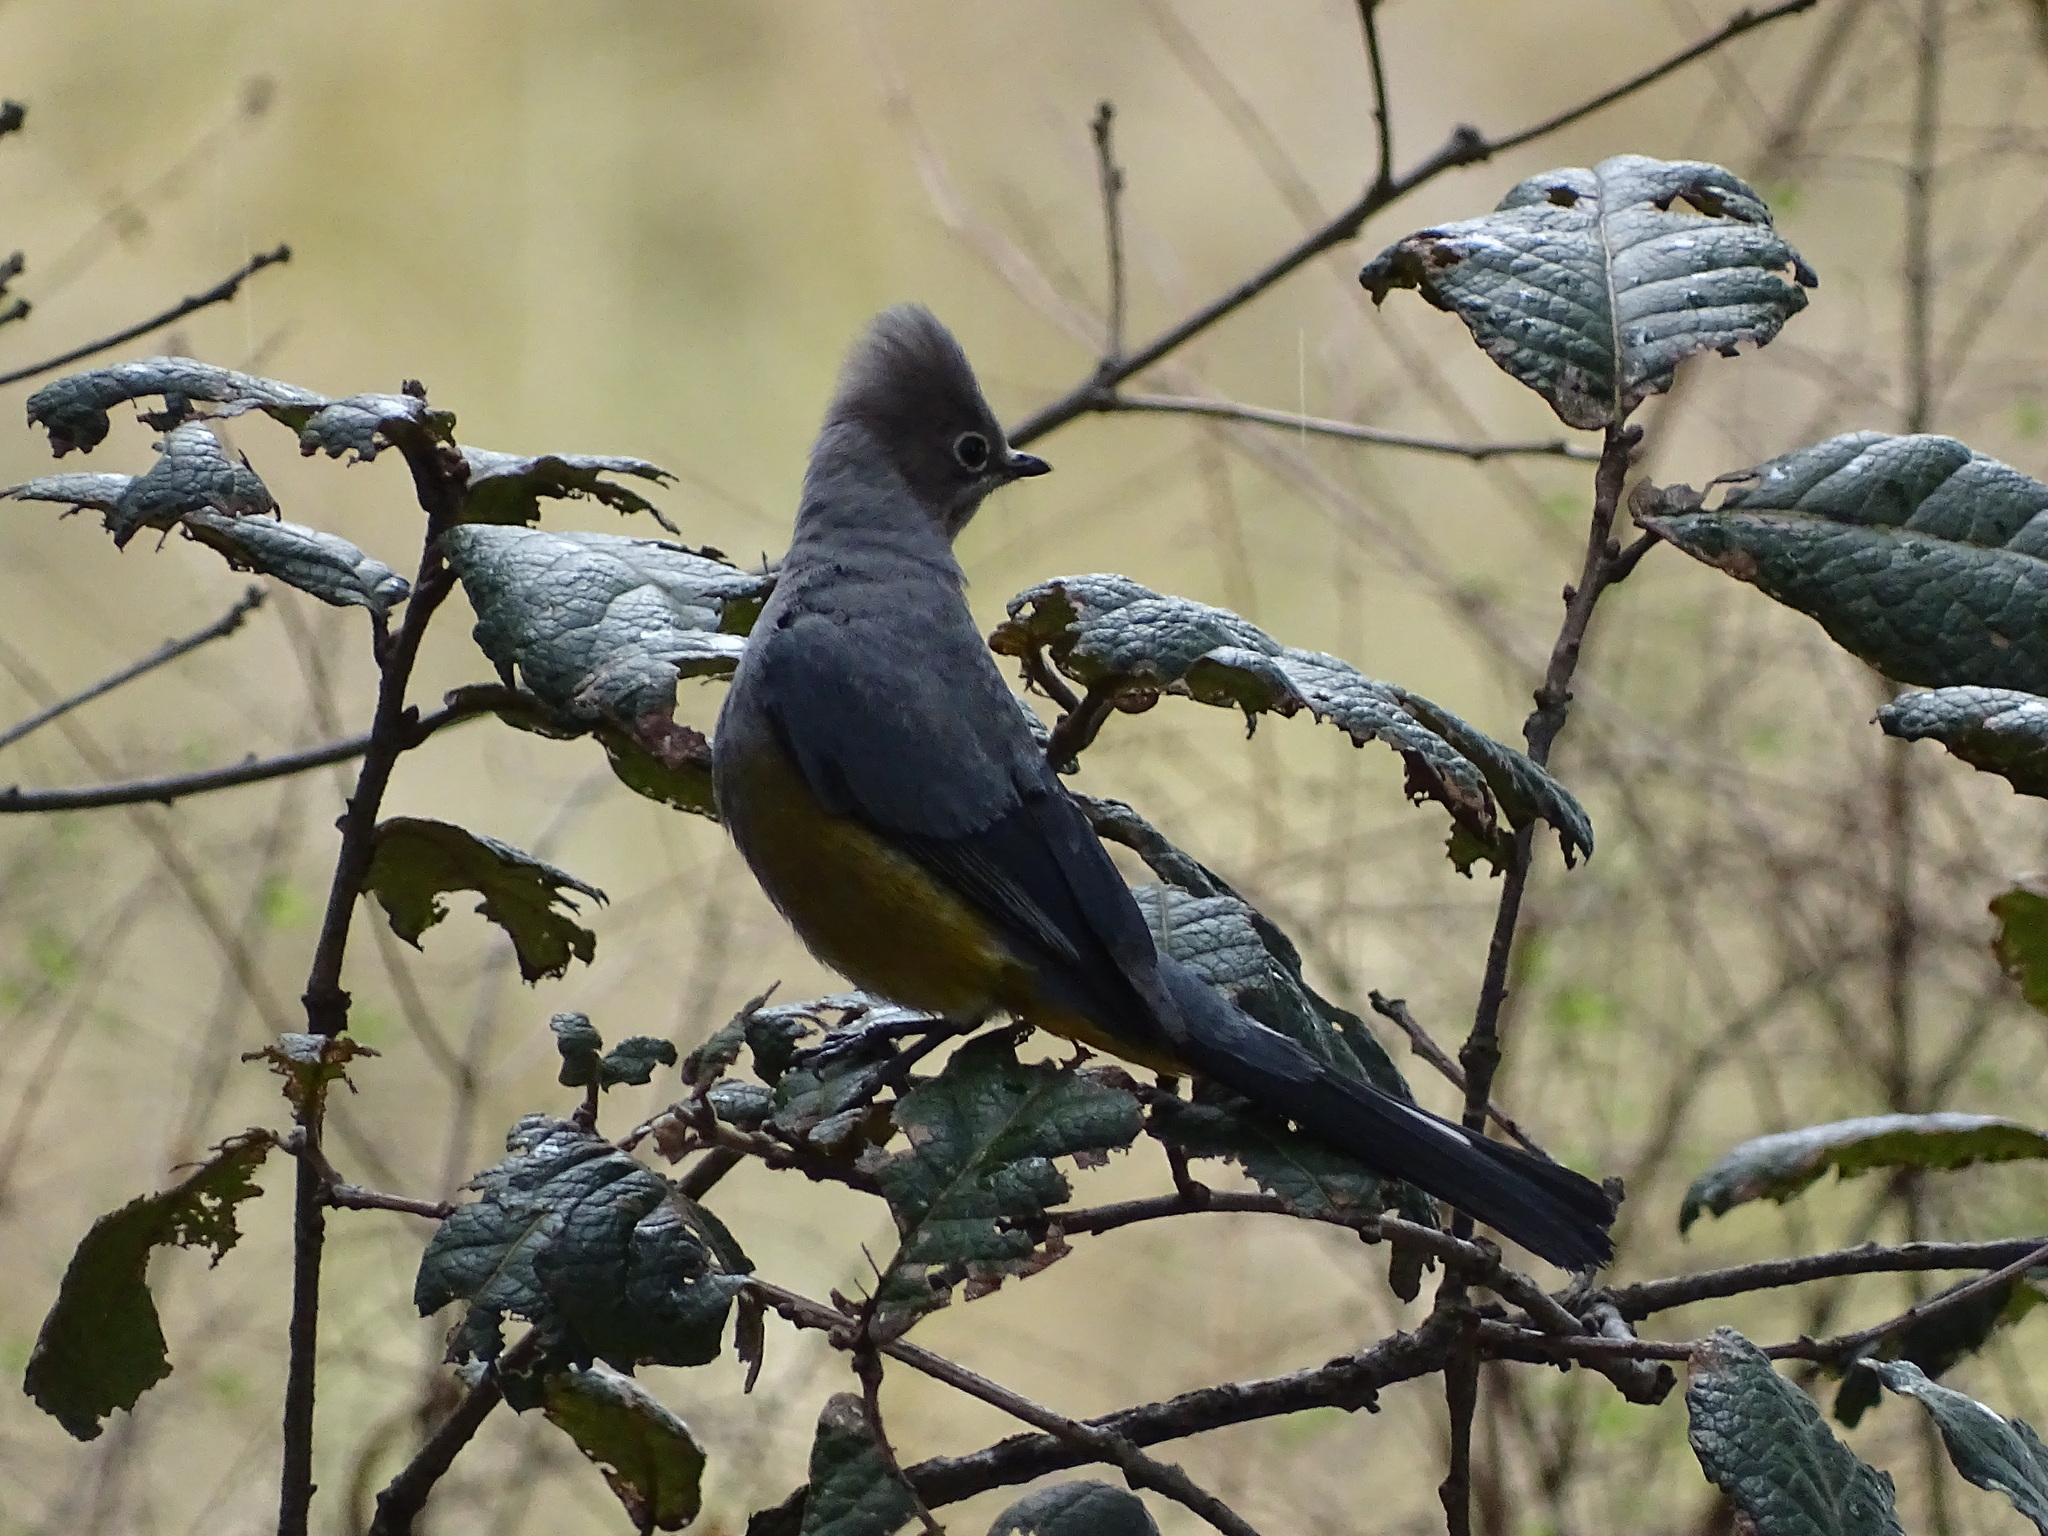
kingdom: Animalia
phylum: Chordata
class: Aves
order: Passeriformes
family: Ptilogonatidae
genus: Ptilogonys
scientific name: Ptilogonys cinereus
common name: Gray silky-flycatcher
